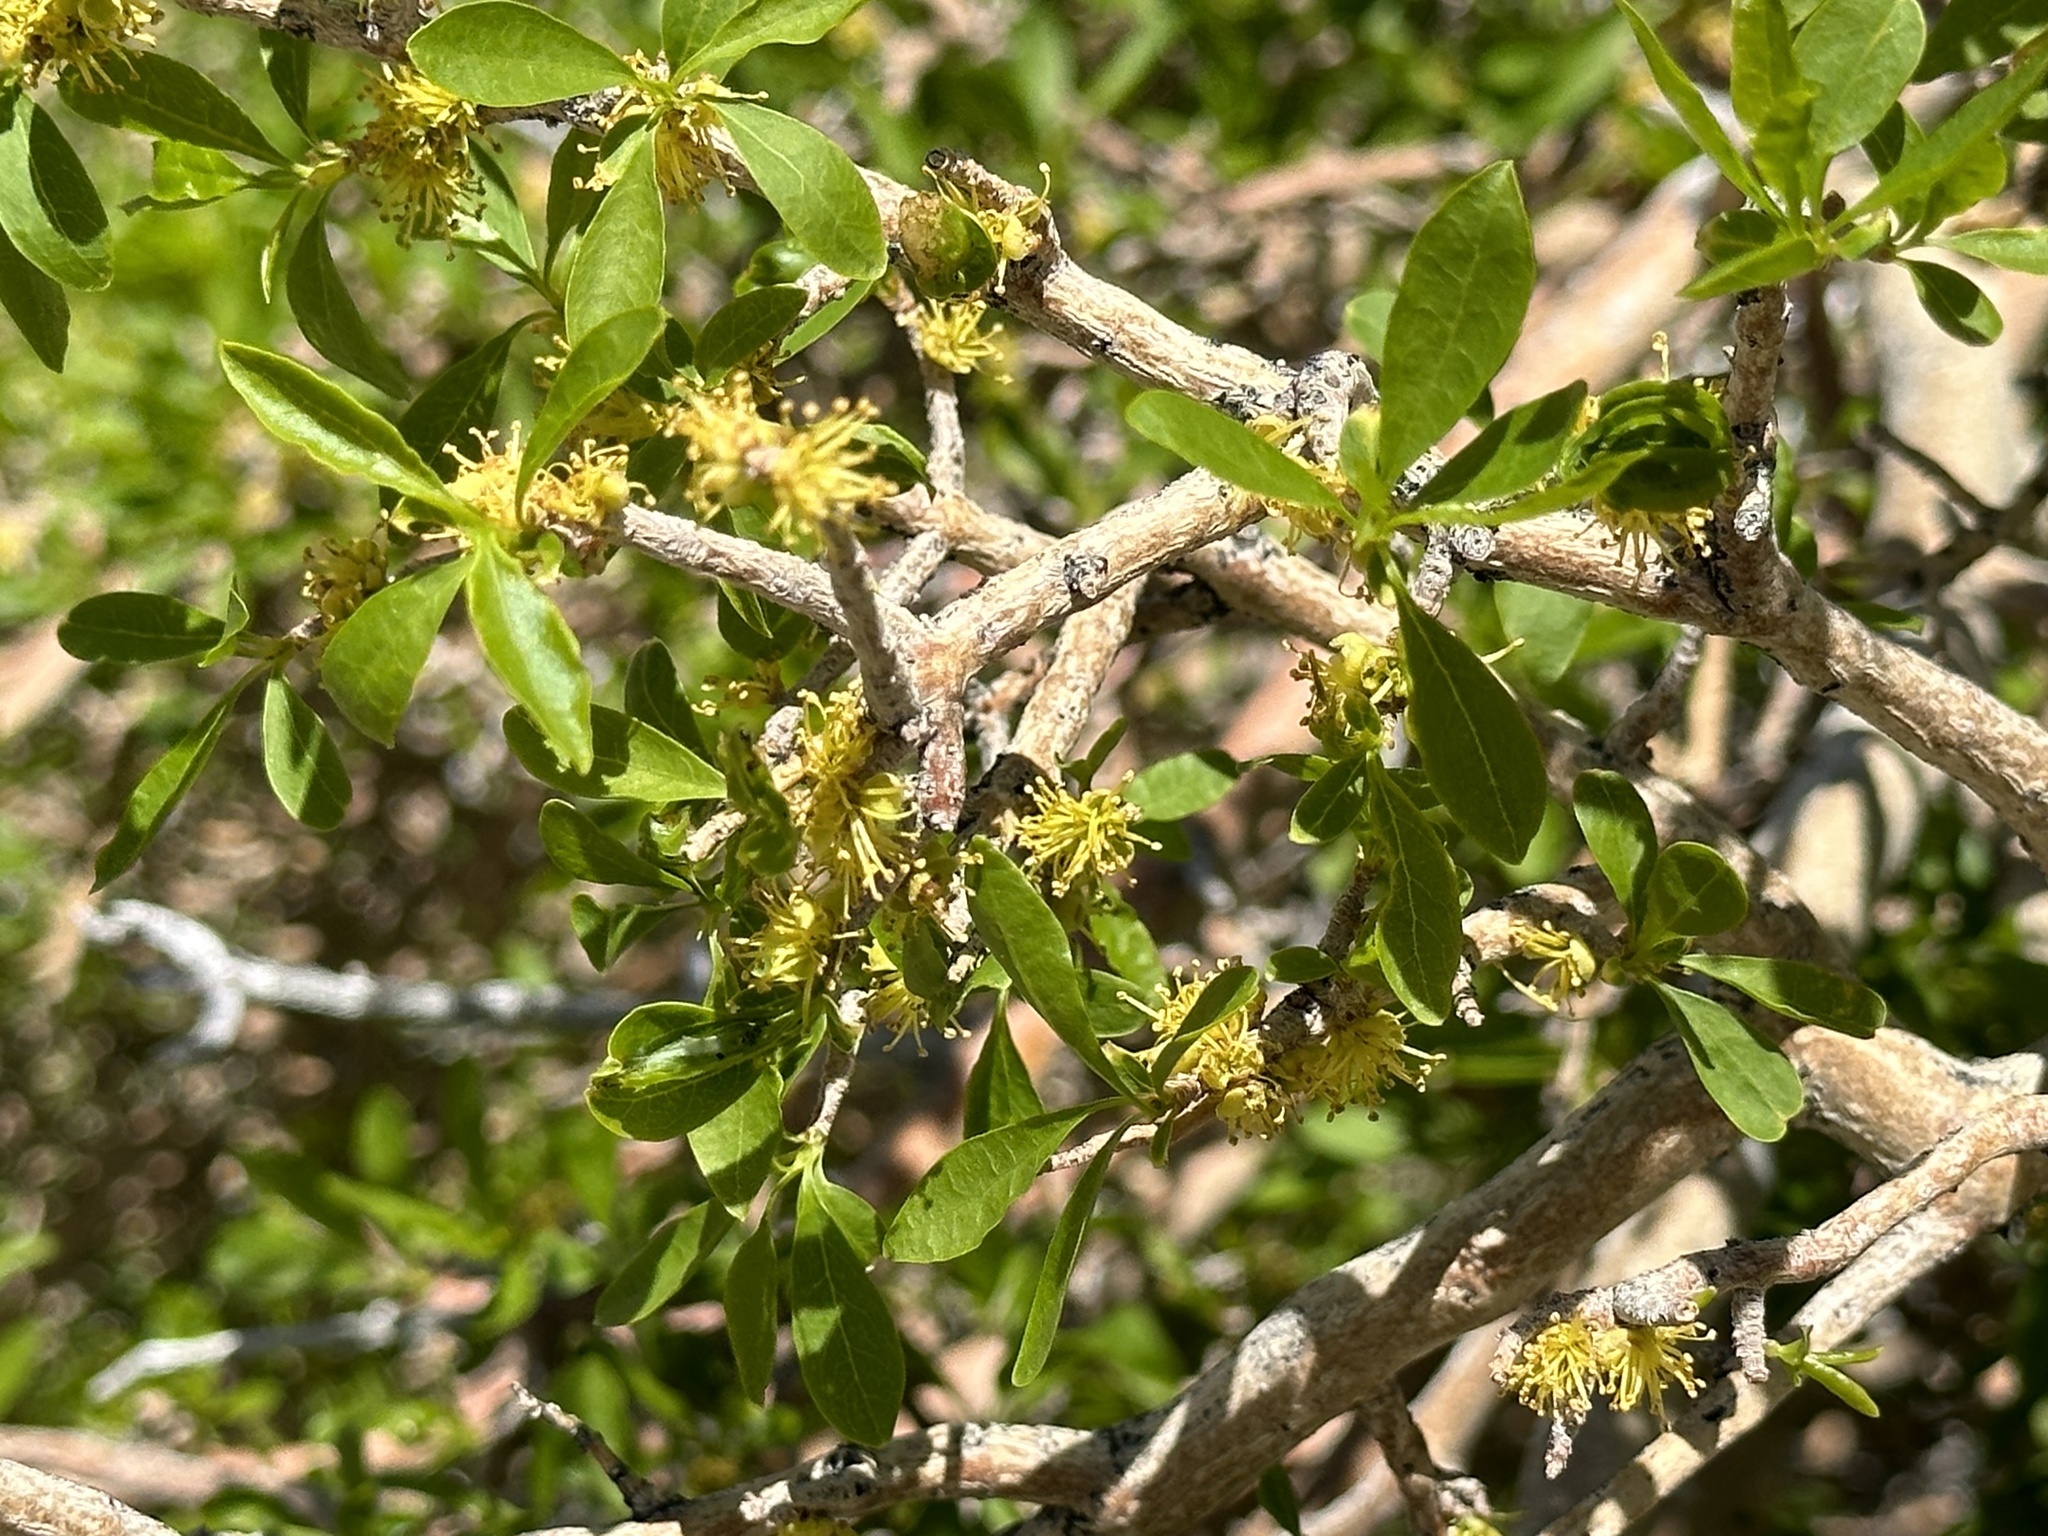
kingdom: Plantae
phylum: Tracheophyta
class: Magnoliopsida
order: Lamiales
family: Oleaceae
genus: Forestiera
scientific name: Forestiera pubescens
